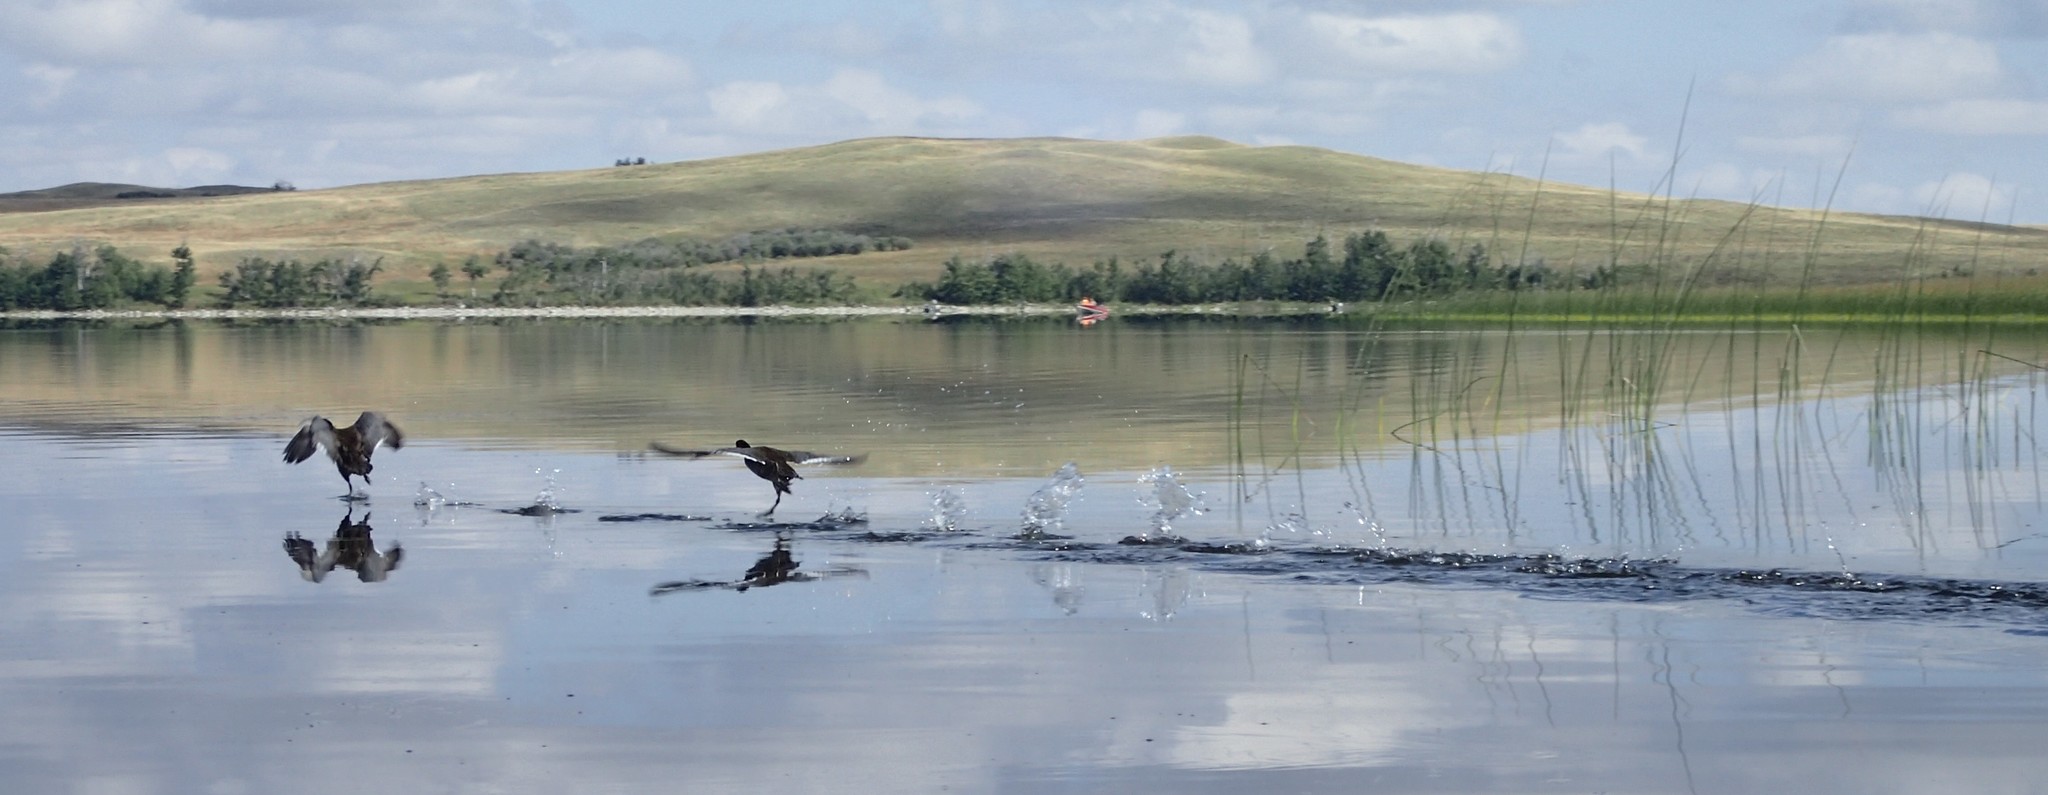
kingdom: Animalia
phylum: Chordata
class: Aves
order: Gruiformes
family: Rallidae
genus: Fulica
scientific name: Fulica americana
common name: American coot
